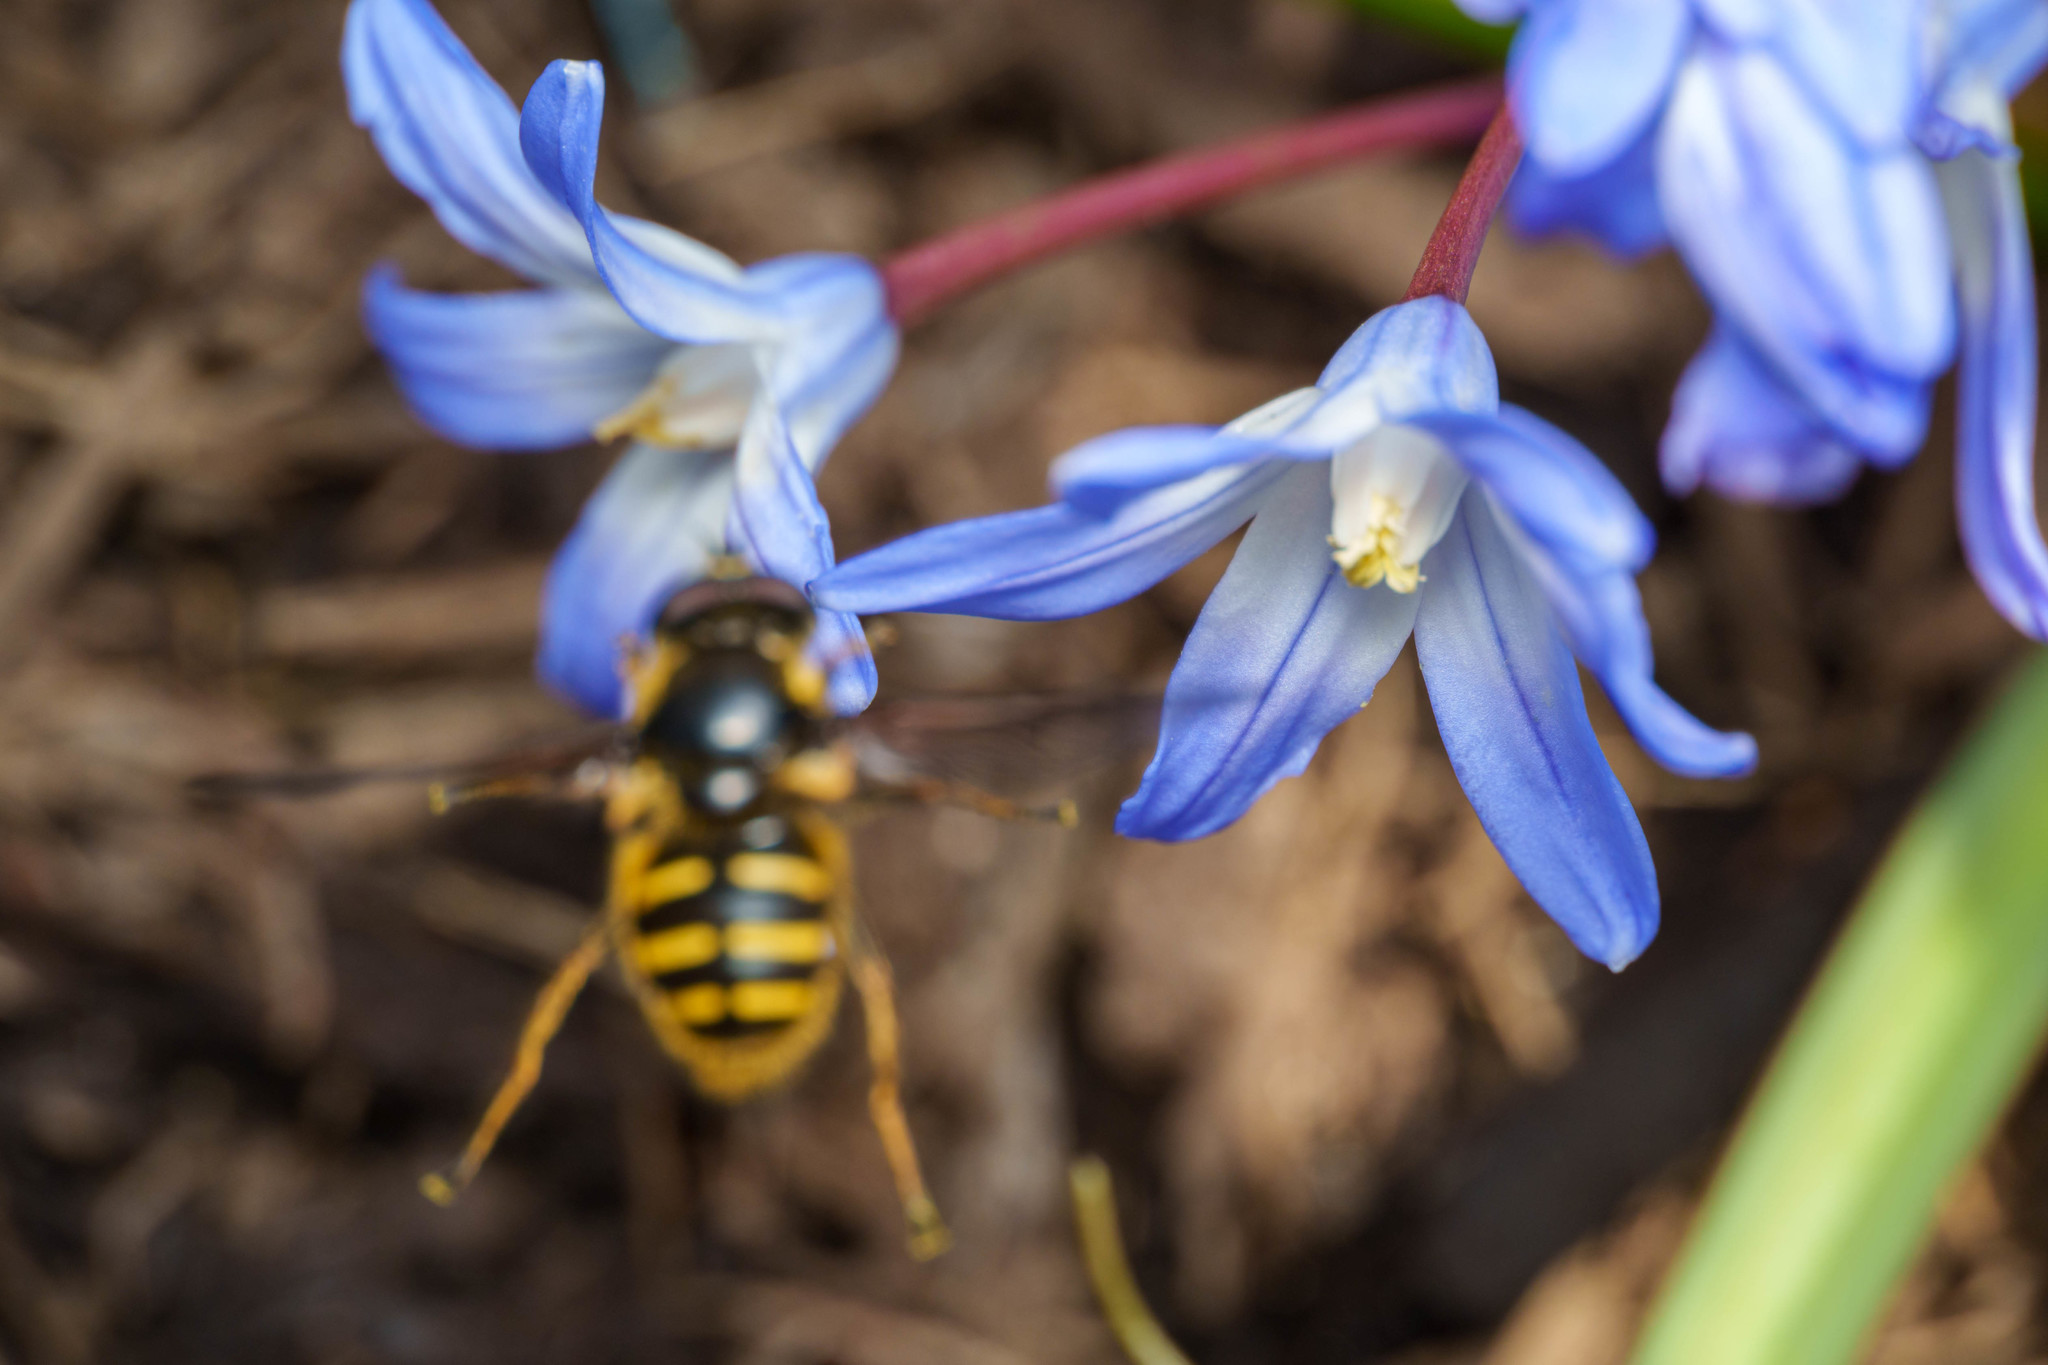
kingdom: Animalia
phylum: Arthropoda
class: Insecta
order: Diptera
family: Syrphidae
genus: Sericomyia
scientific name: Sericomyia chalcopyga
